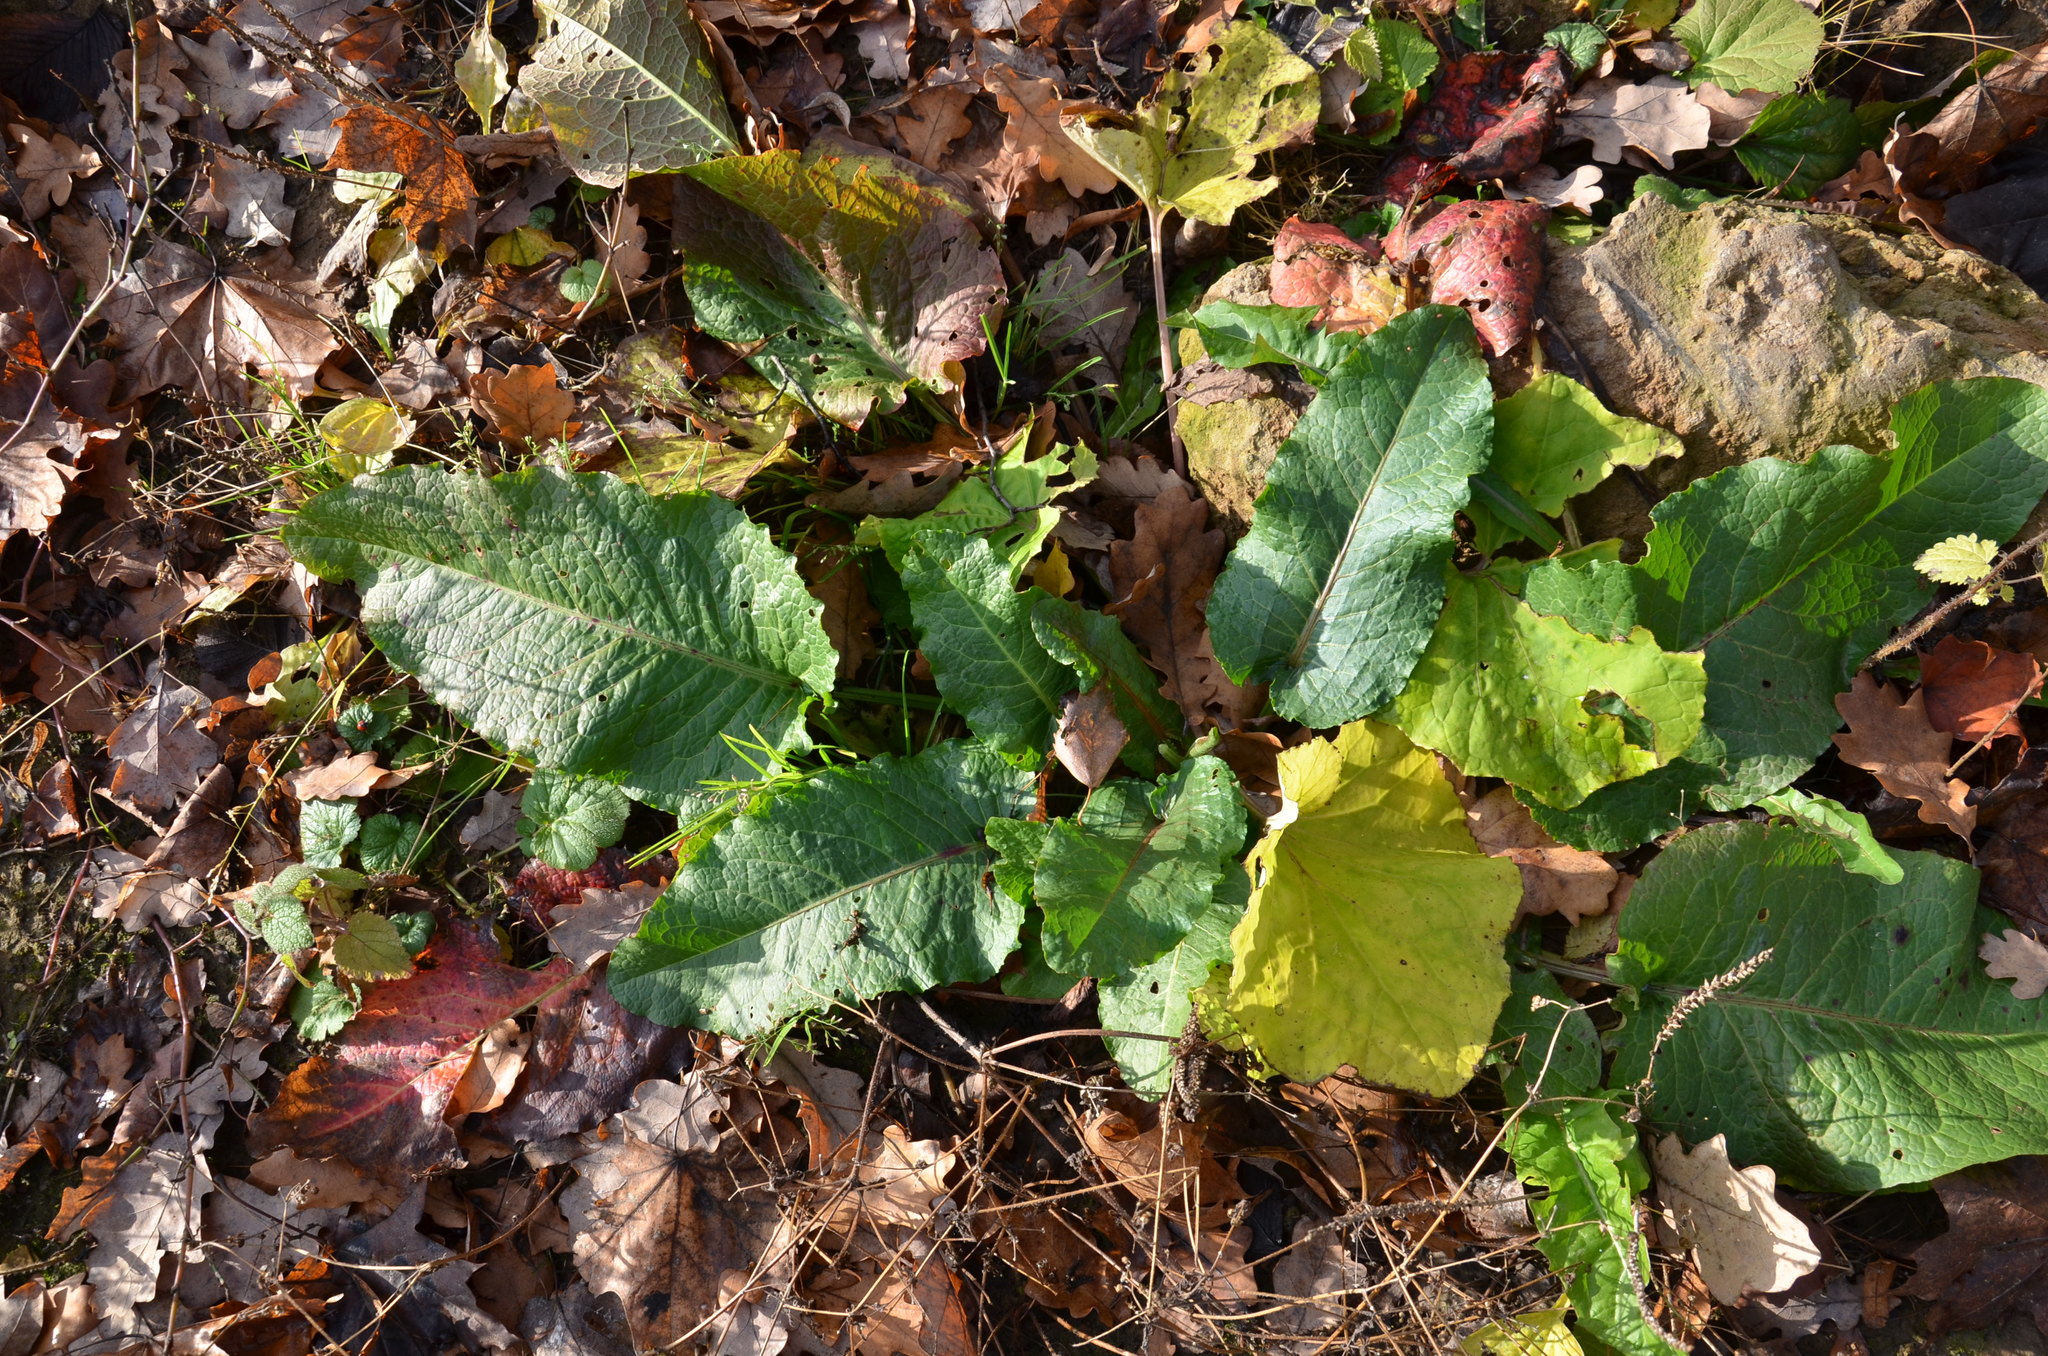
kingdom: Plantae
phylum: Tracheophyta
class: Magnoliopsida
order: Caryophyllales
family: Polygonaceae
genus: Rumex
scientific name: Rumex obtusifolius
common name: Bitter dock
